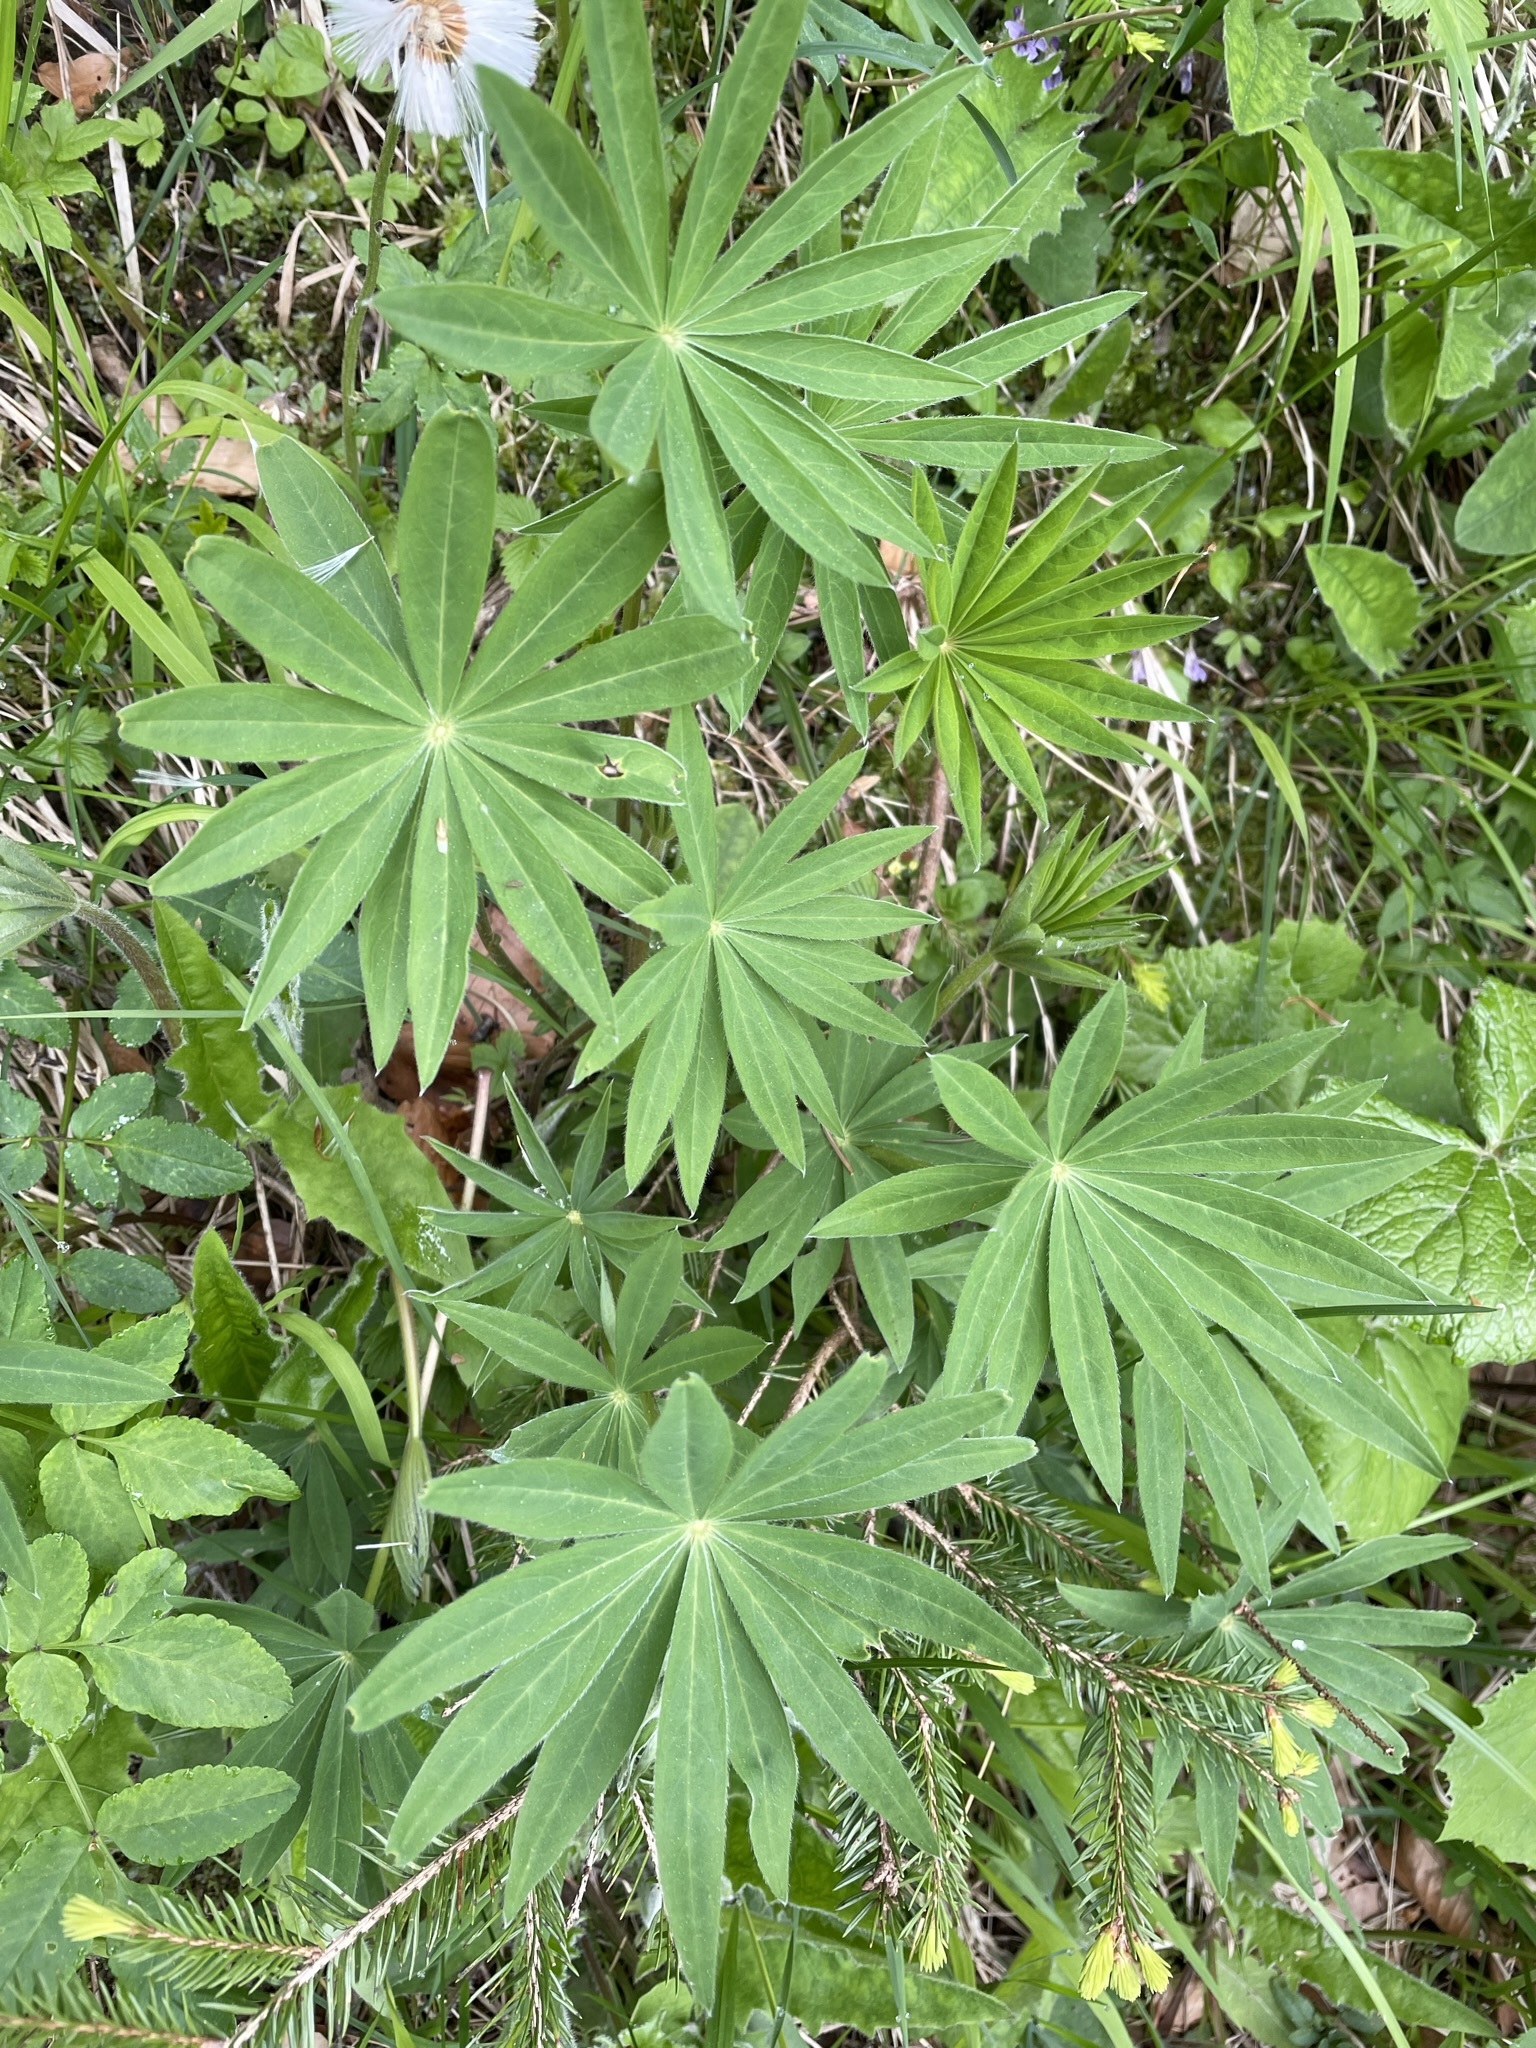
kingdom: Plantae
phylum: Tracheophyta
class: Magnoliopsida
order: Fabales
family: Fabaceae
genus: Lupinus
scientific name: Lupinus polyphyllus
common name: Garden lupin
